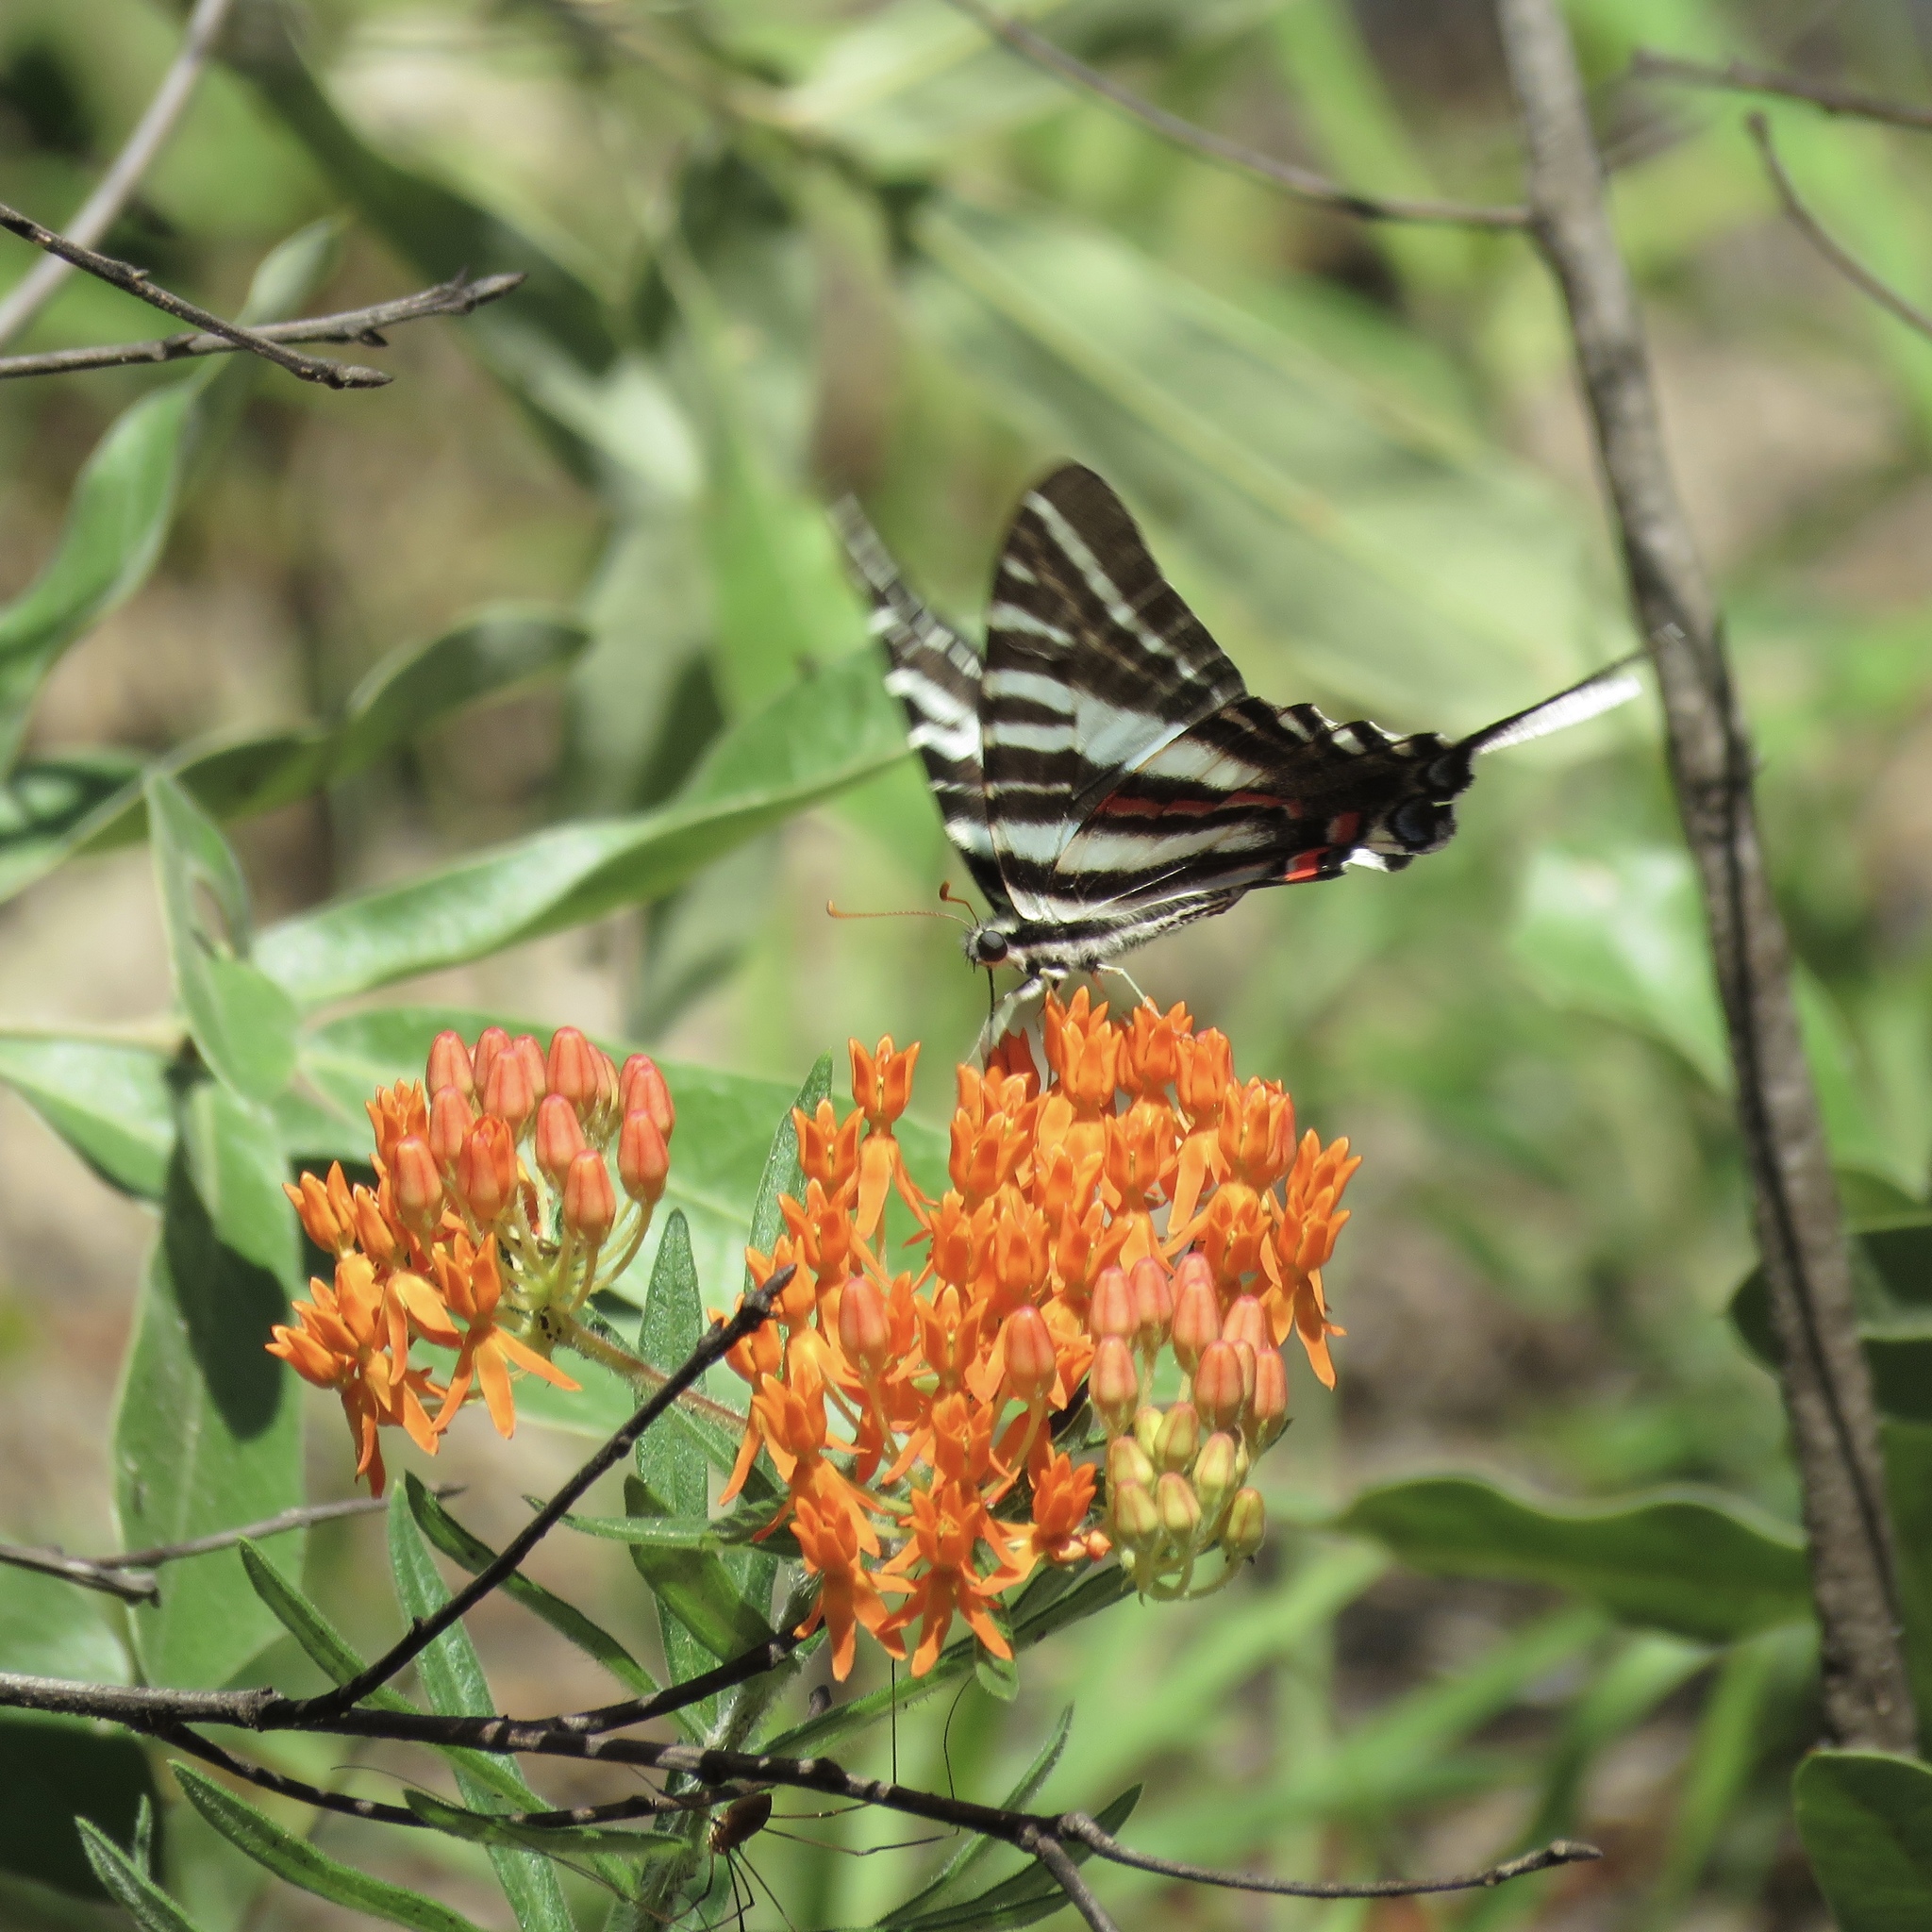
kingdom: Animalia
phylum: Arthropoda
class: Insecta
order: Lepidoptera
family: Papilionidae
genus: Protographium
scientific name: Protographium marcellus
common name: Zebra swallowtail
